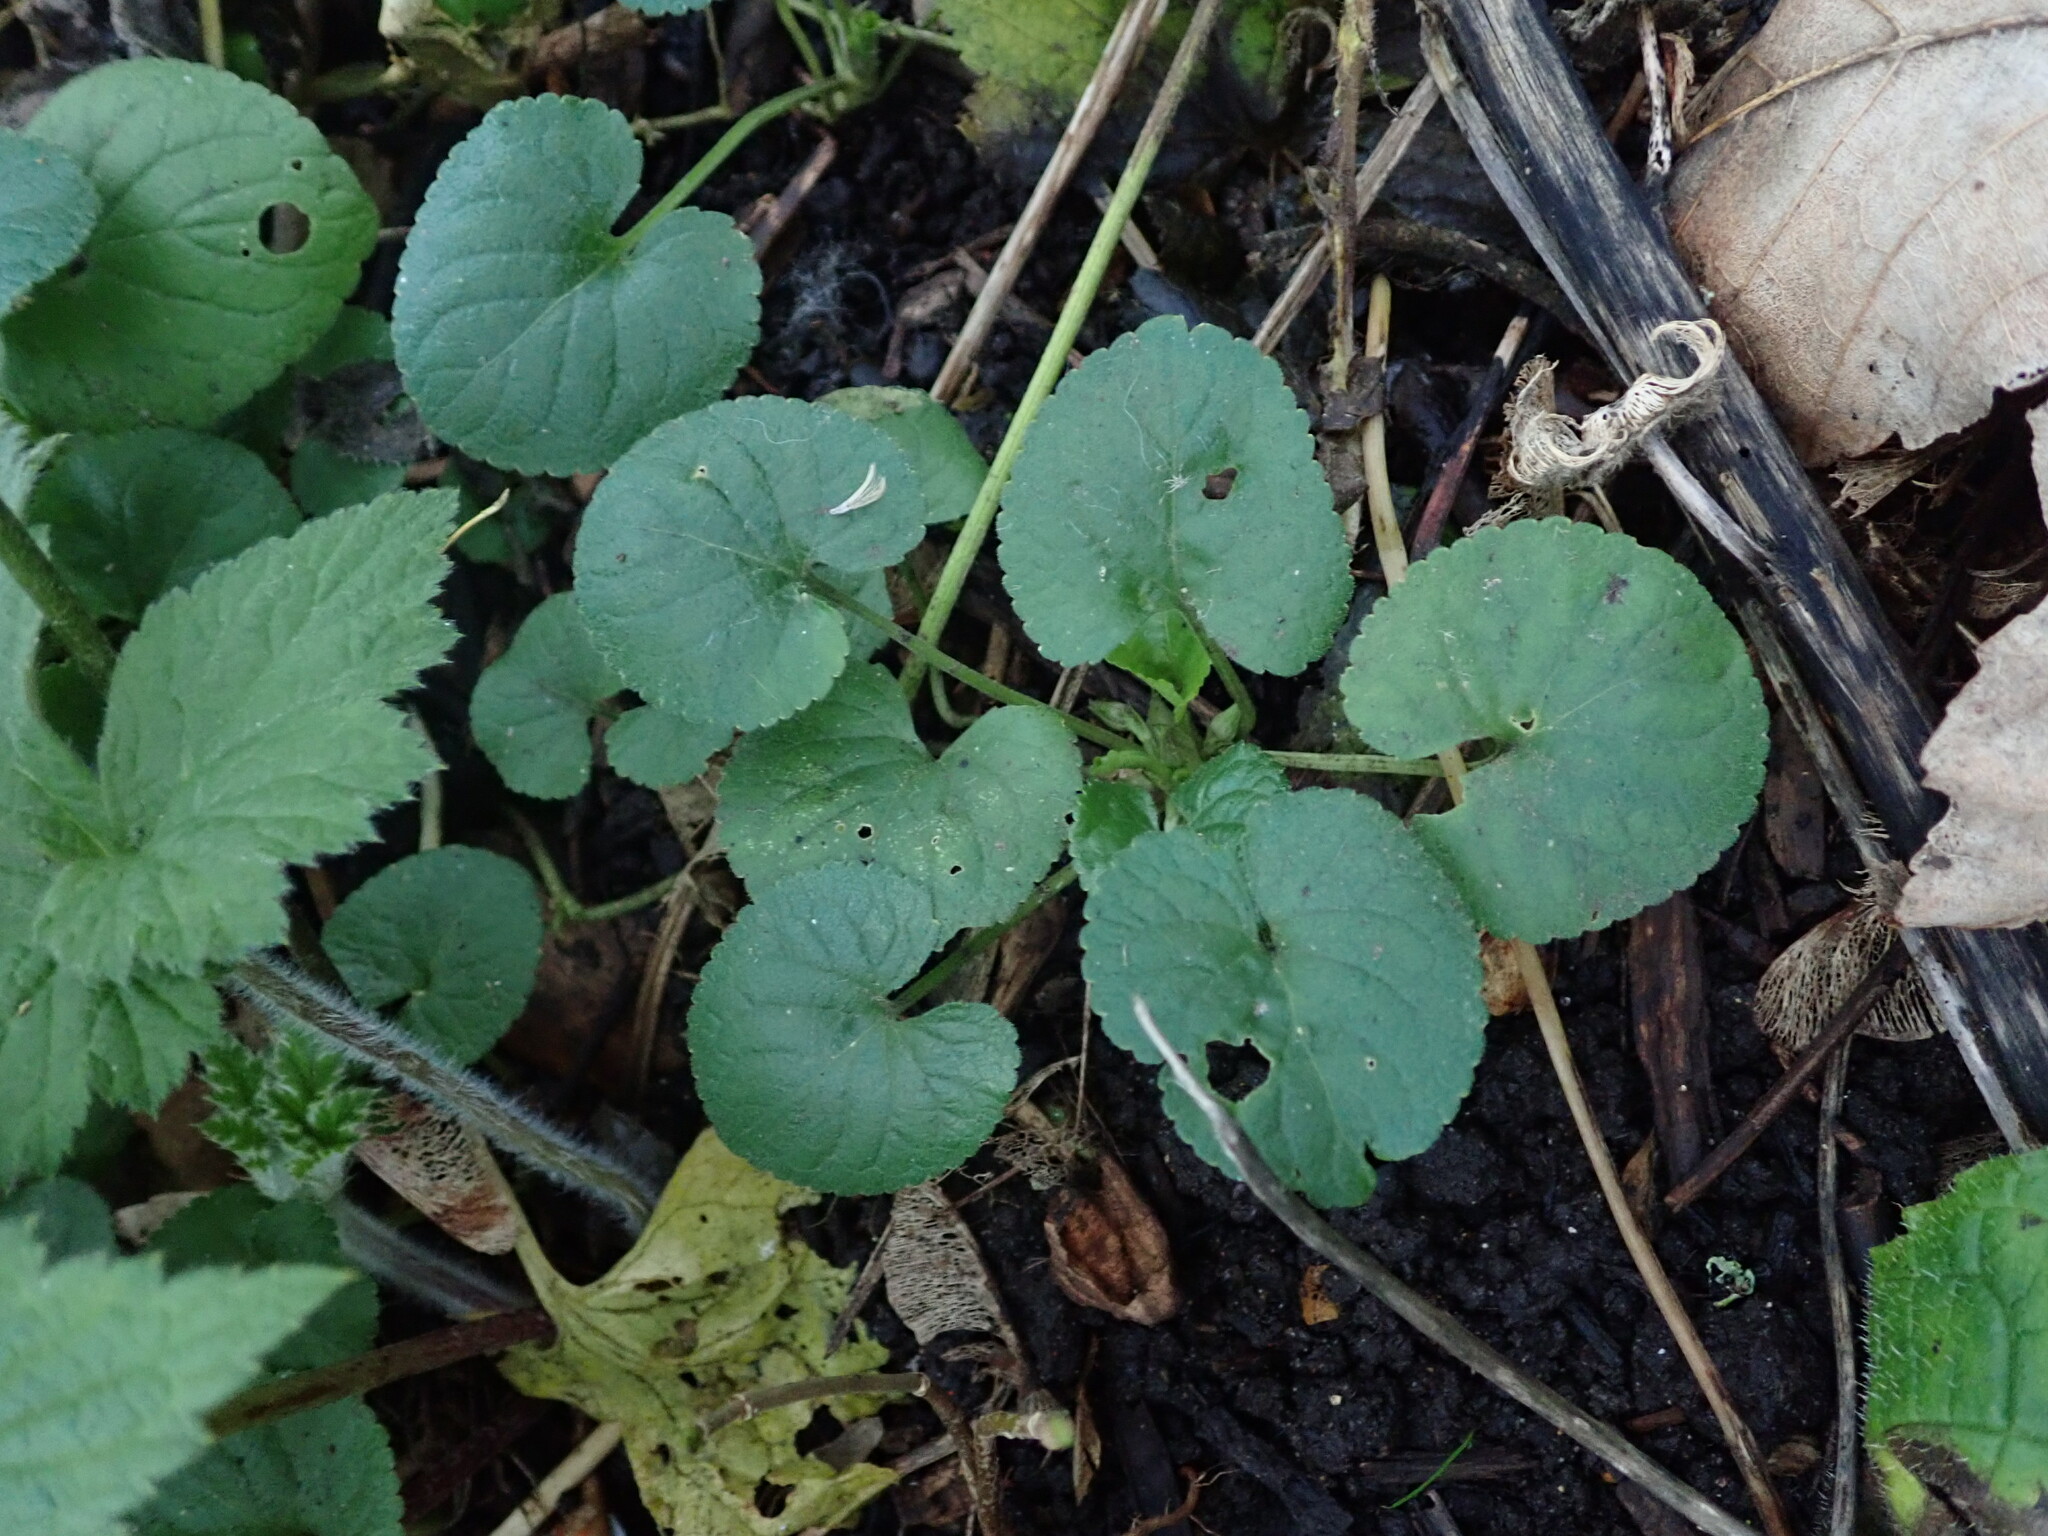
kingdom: Plantae
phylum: Tracheophyta
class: Magnoliopsida
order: Malpighiales
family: Violaceae
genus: Viola
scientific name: Viola odorata
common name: Sweet violet
